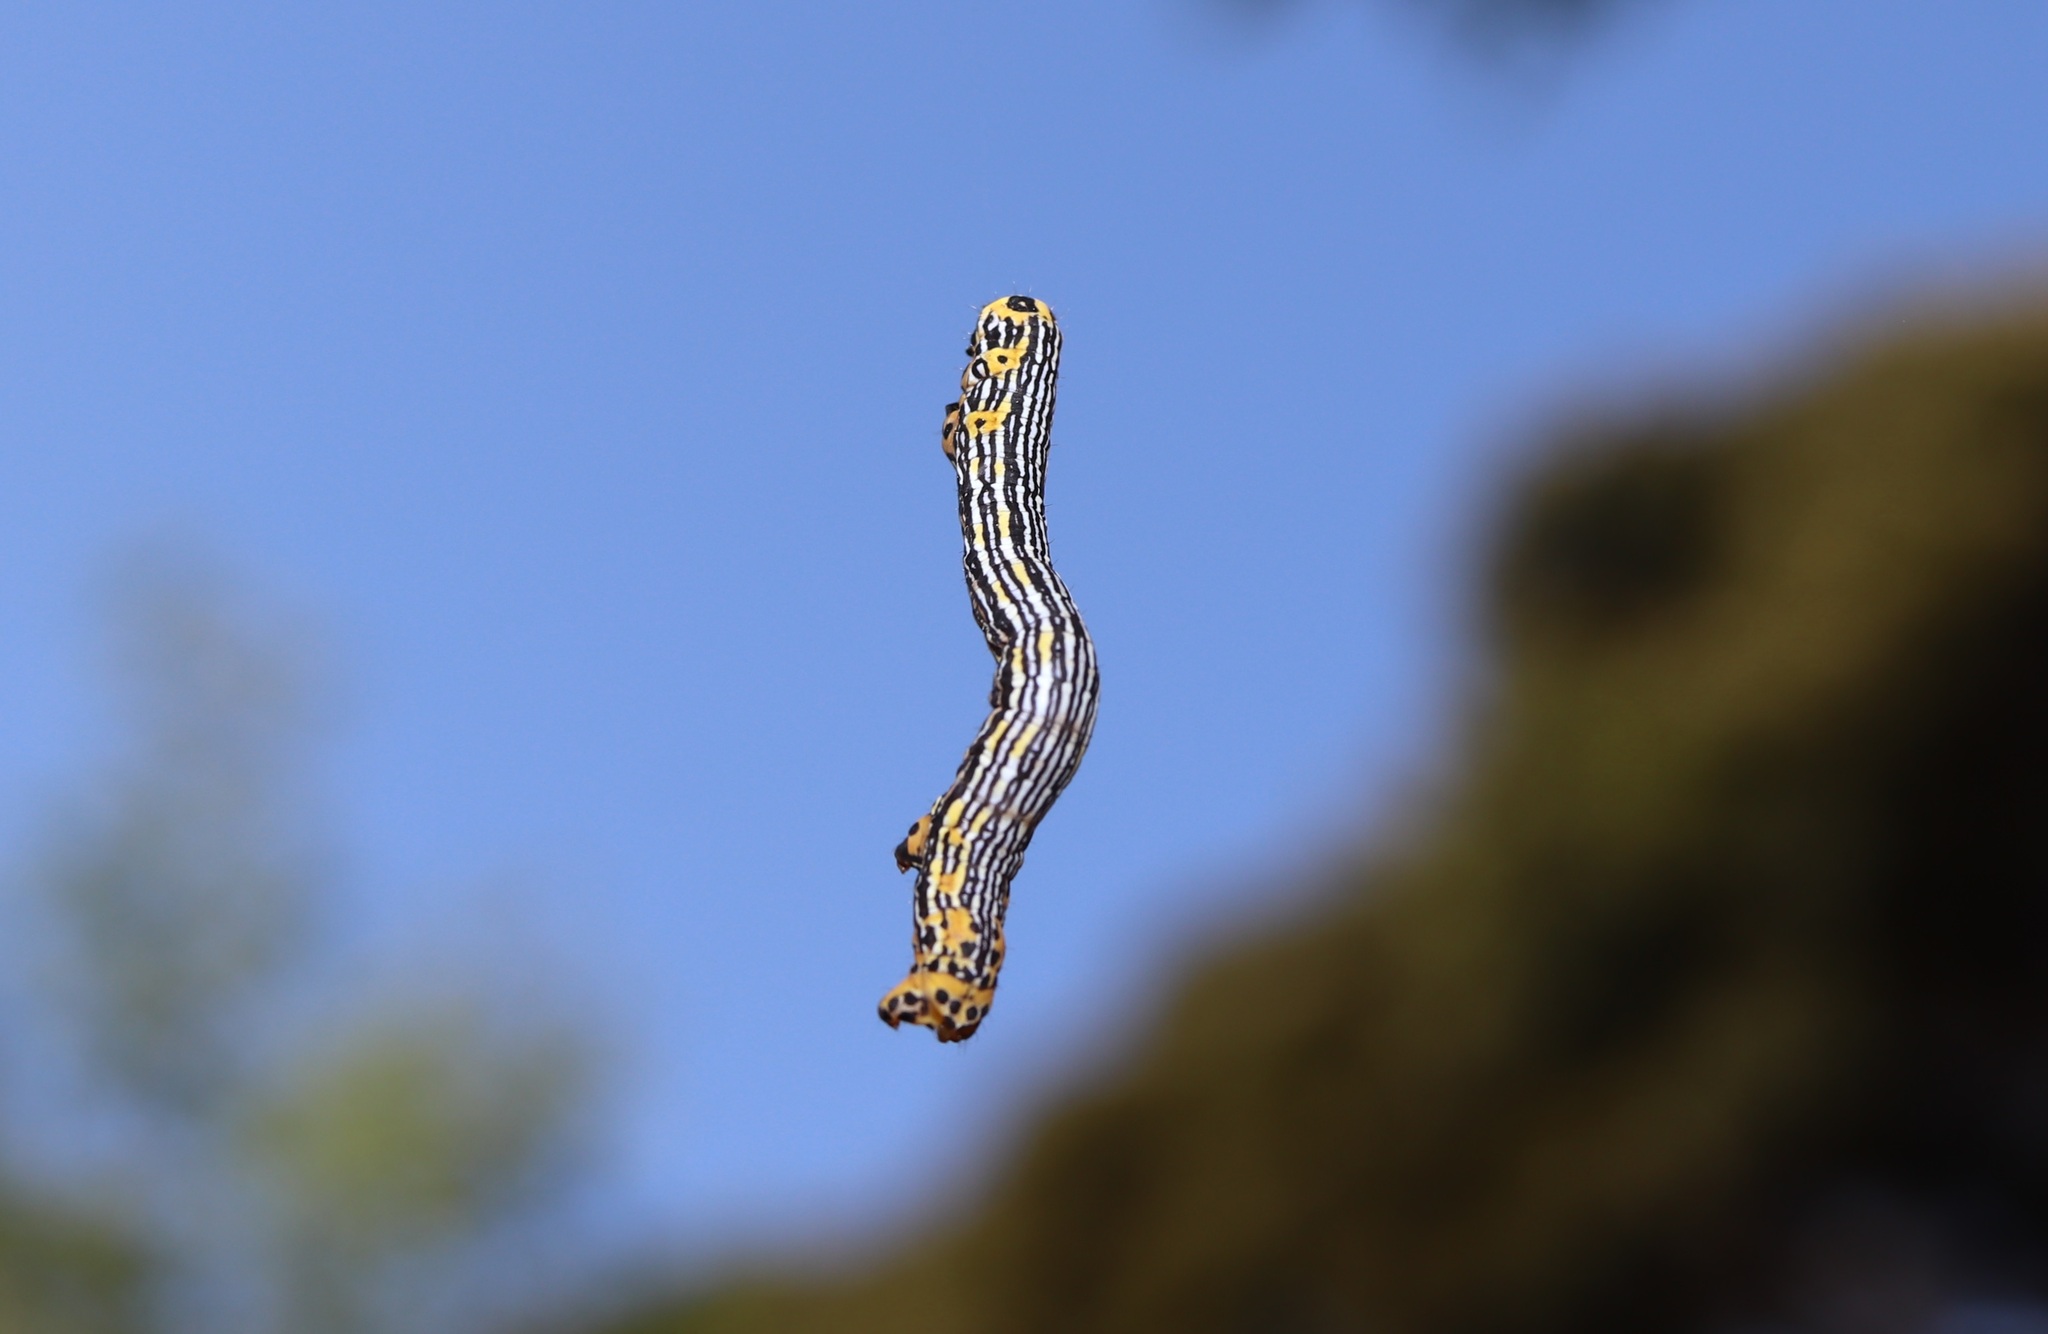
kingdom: Animalia
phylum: Arthropoda
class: Insecta
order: Lepidoptera
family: Geometridae
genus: Acrodontis
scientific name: Acrodontis kotshubeji
